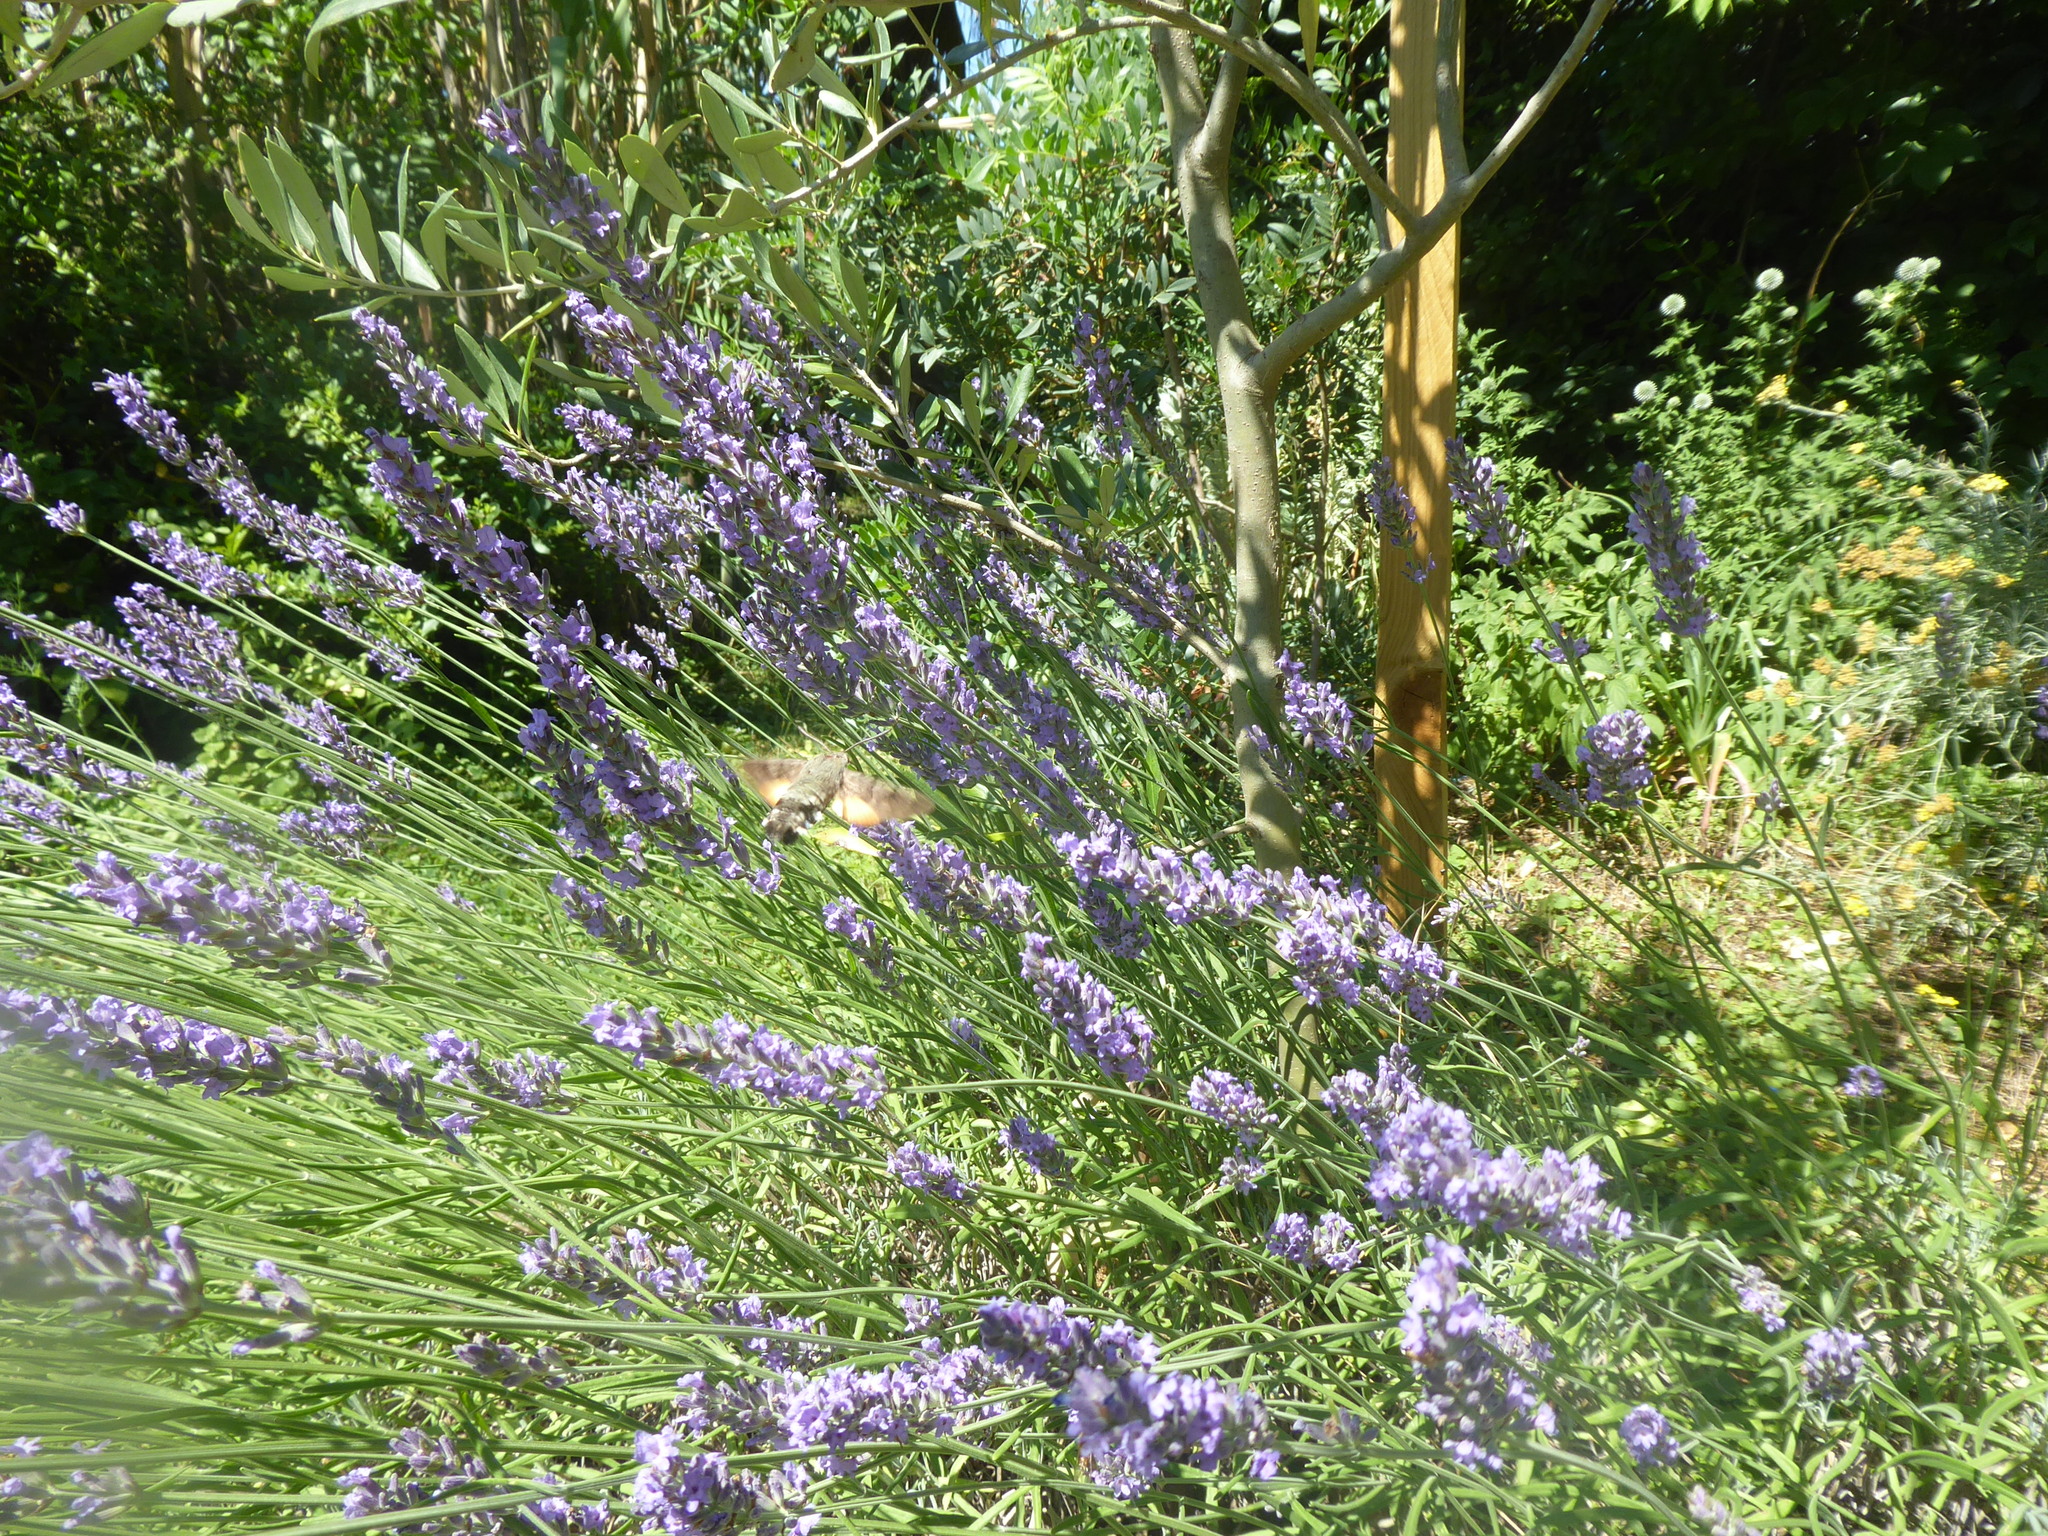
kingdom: Animalia
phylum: Arthropoda
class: Insecta
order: Lepidoptera
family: Sphingidae
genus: Macroglossum
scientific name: Macroglossum stellatarum
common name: Humming-bird hawk-moth
